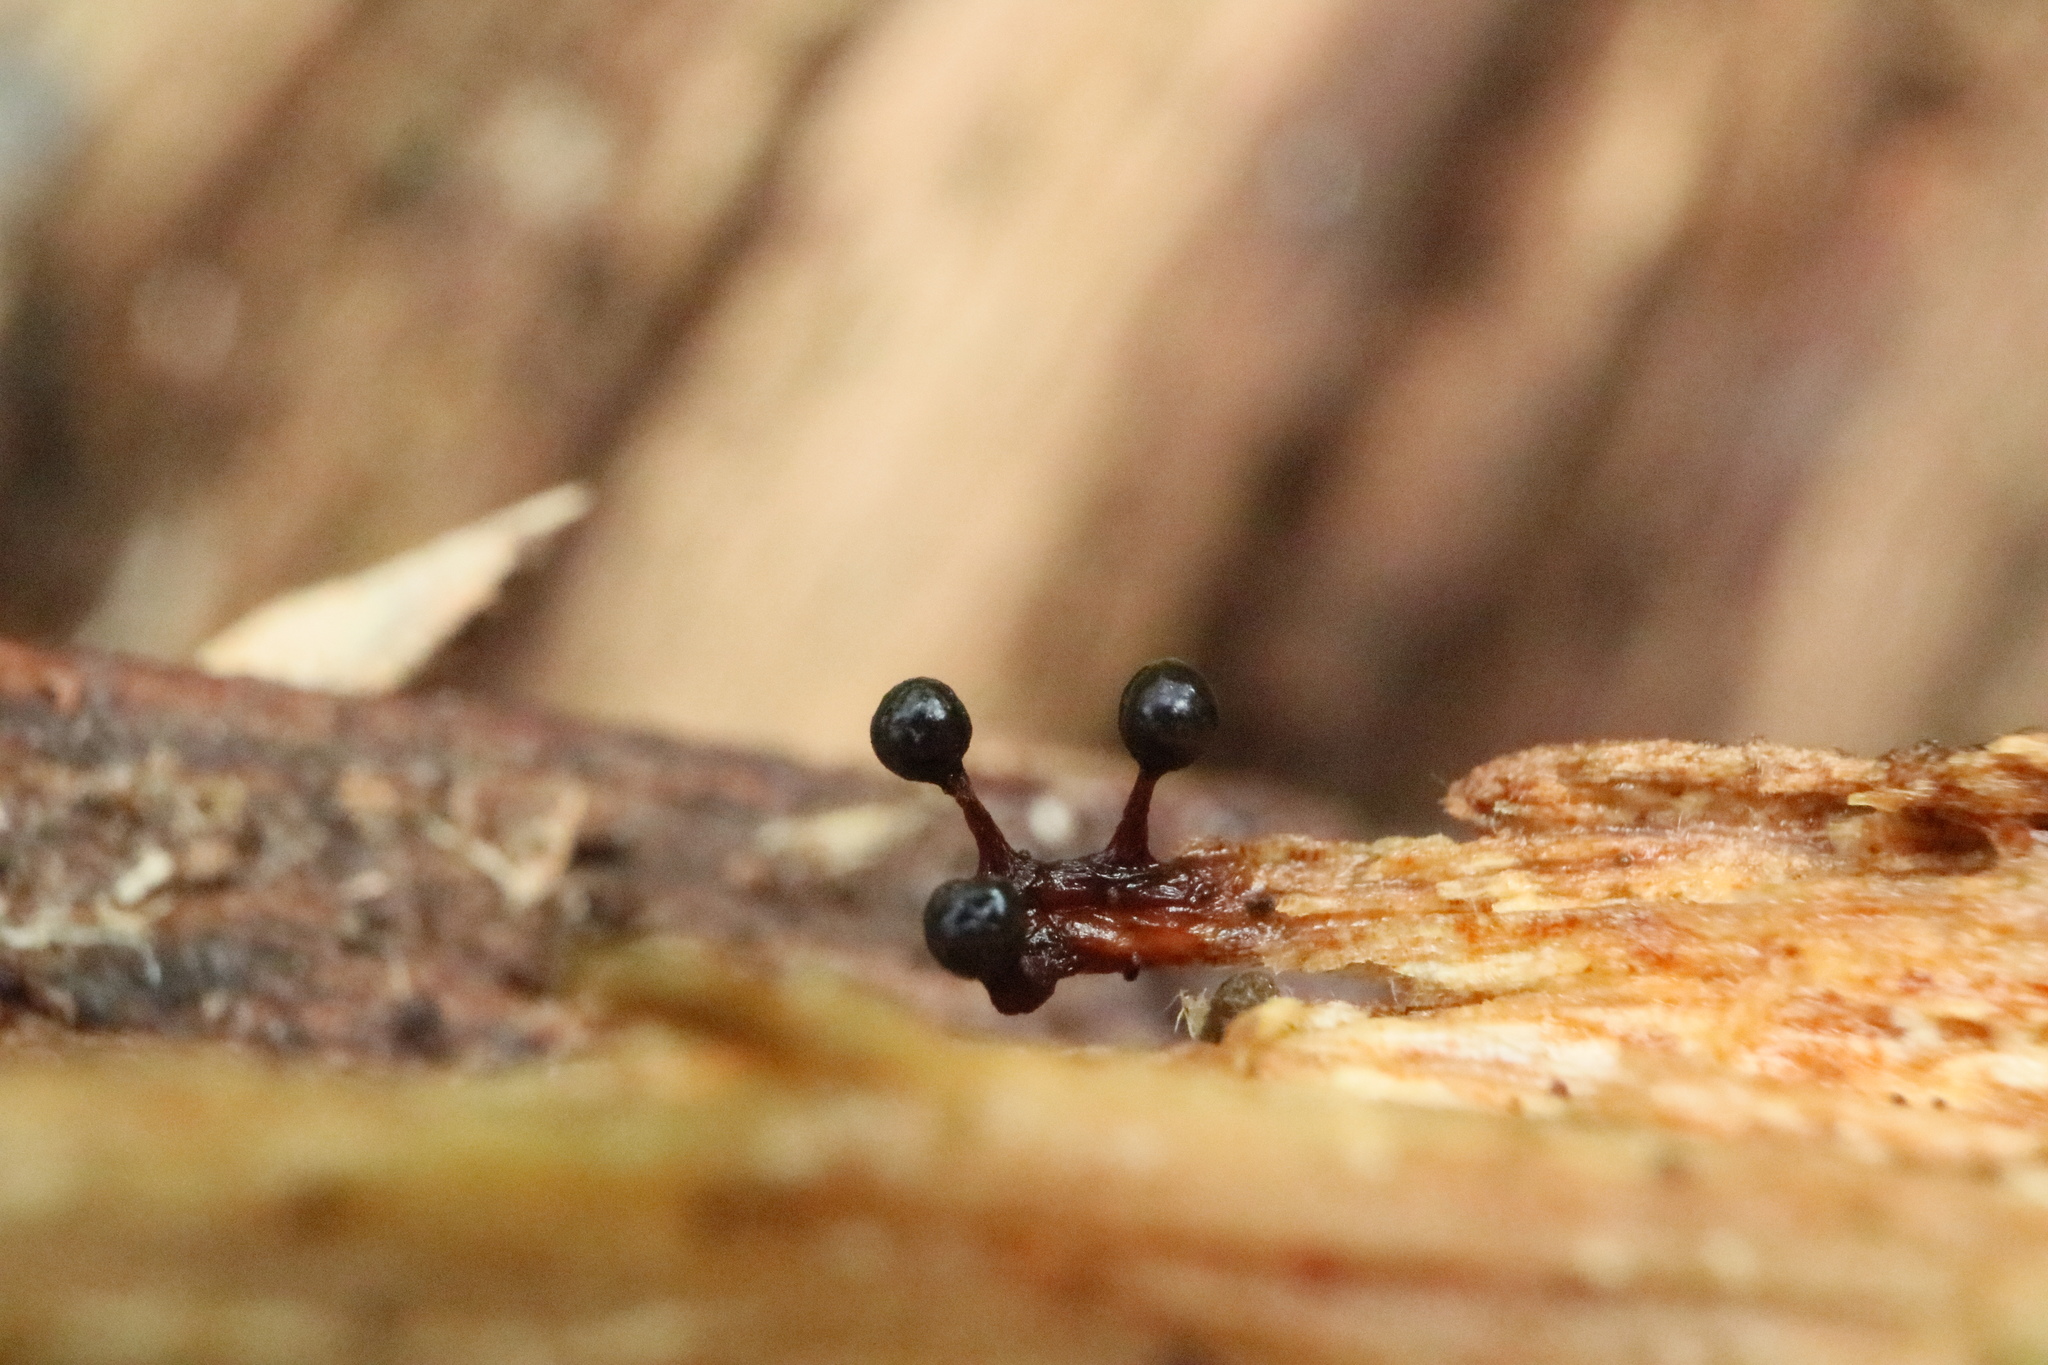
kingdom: Protozoa
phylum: Mycetozoa
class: Myxomycetes
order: Trichiales
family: Trichiaceae
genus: Metatrichia
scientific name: Metatrichia floriformis
